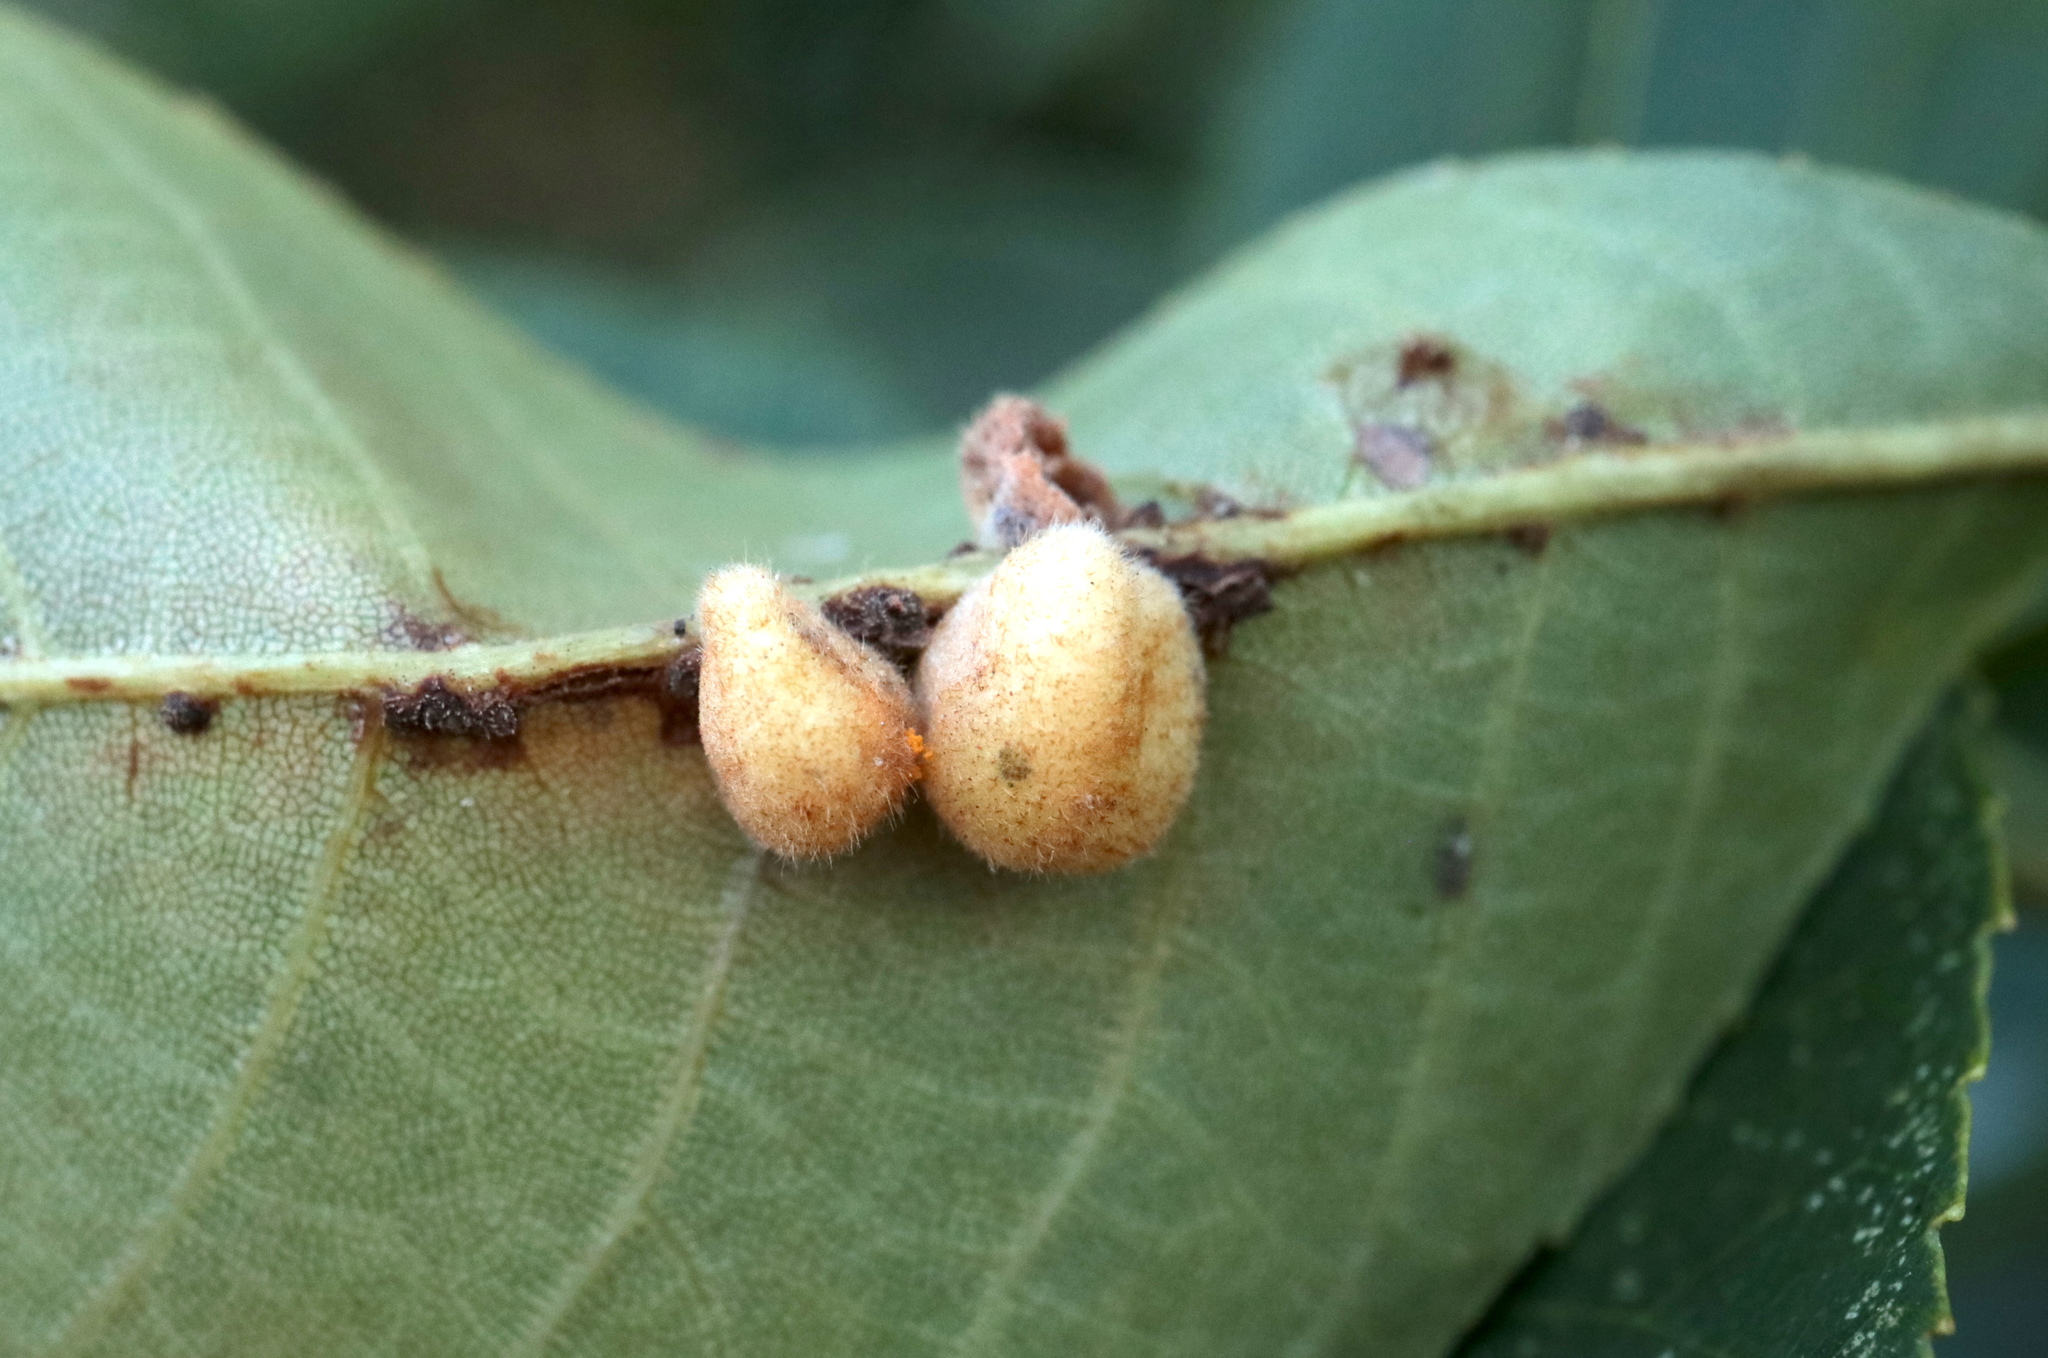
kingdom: Animalia
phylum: Arthropoda
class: Insecta
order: Diptera
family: Cecidomyiidae
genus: Caryomyia
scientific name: Caryomyia aggregata
